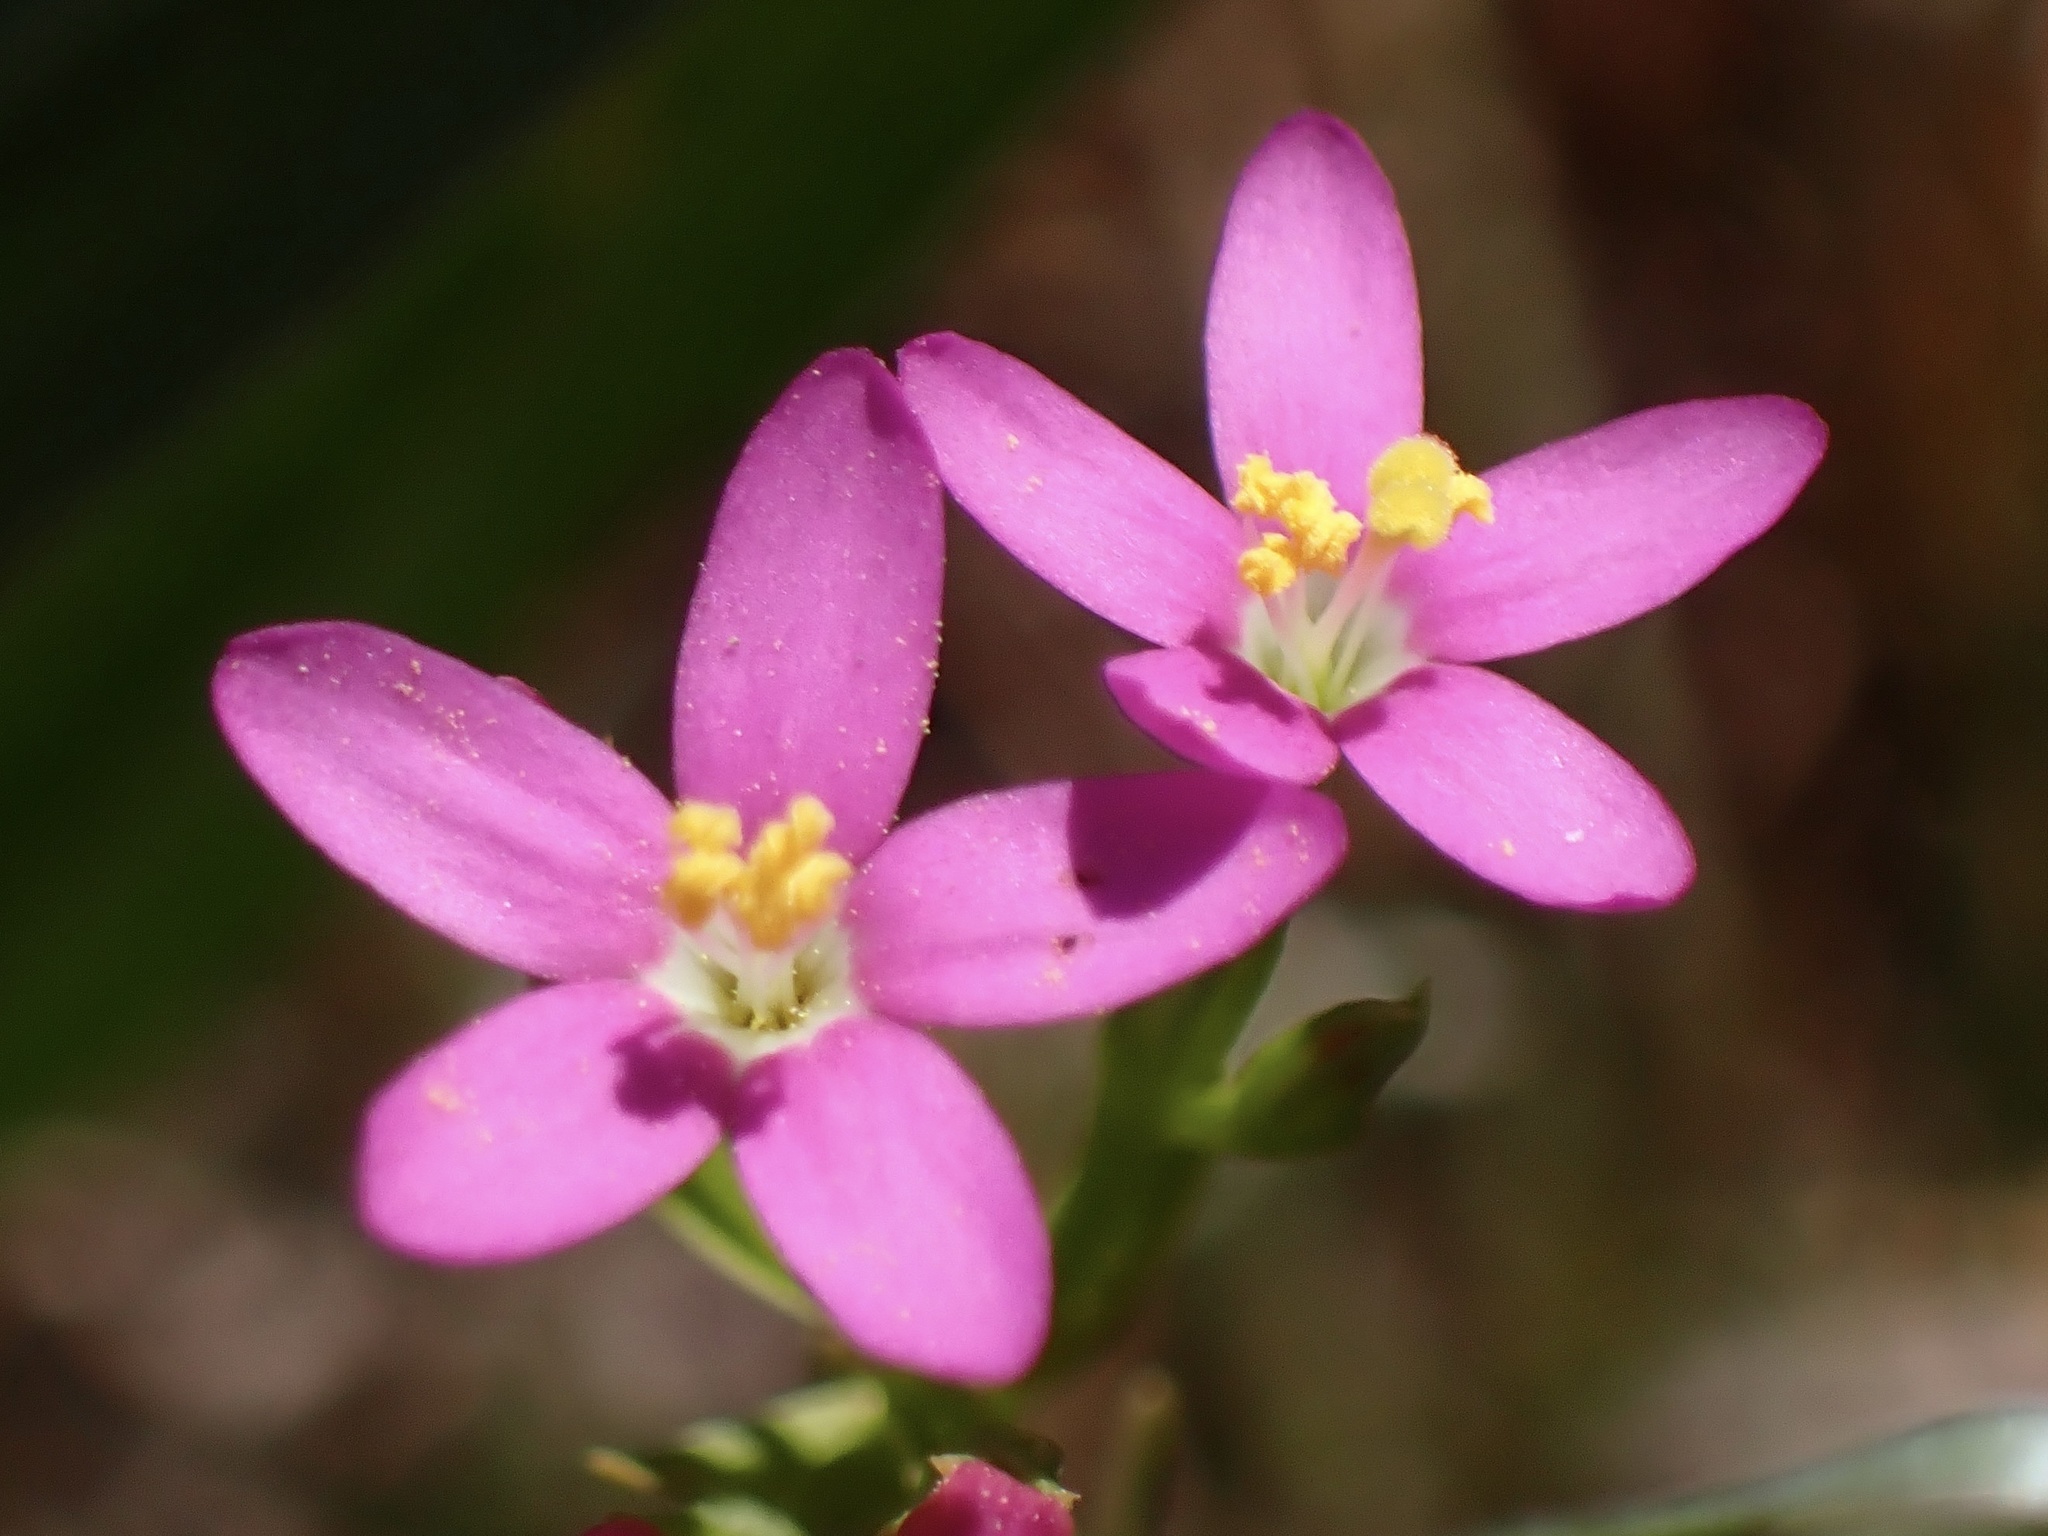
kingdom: Plantae
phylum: Tracheophyta
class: Magnoliopsida
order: Gentianales
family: Gentianaceae
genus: Zeltnera
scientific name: Zeltnera muhlenbergii
